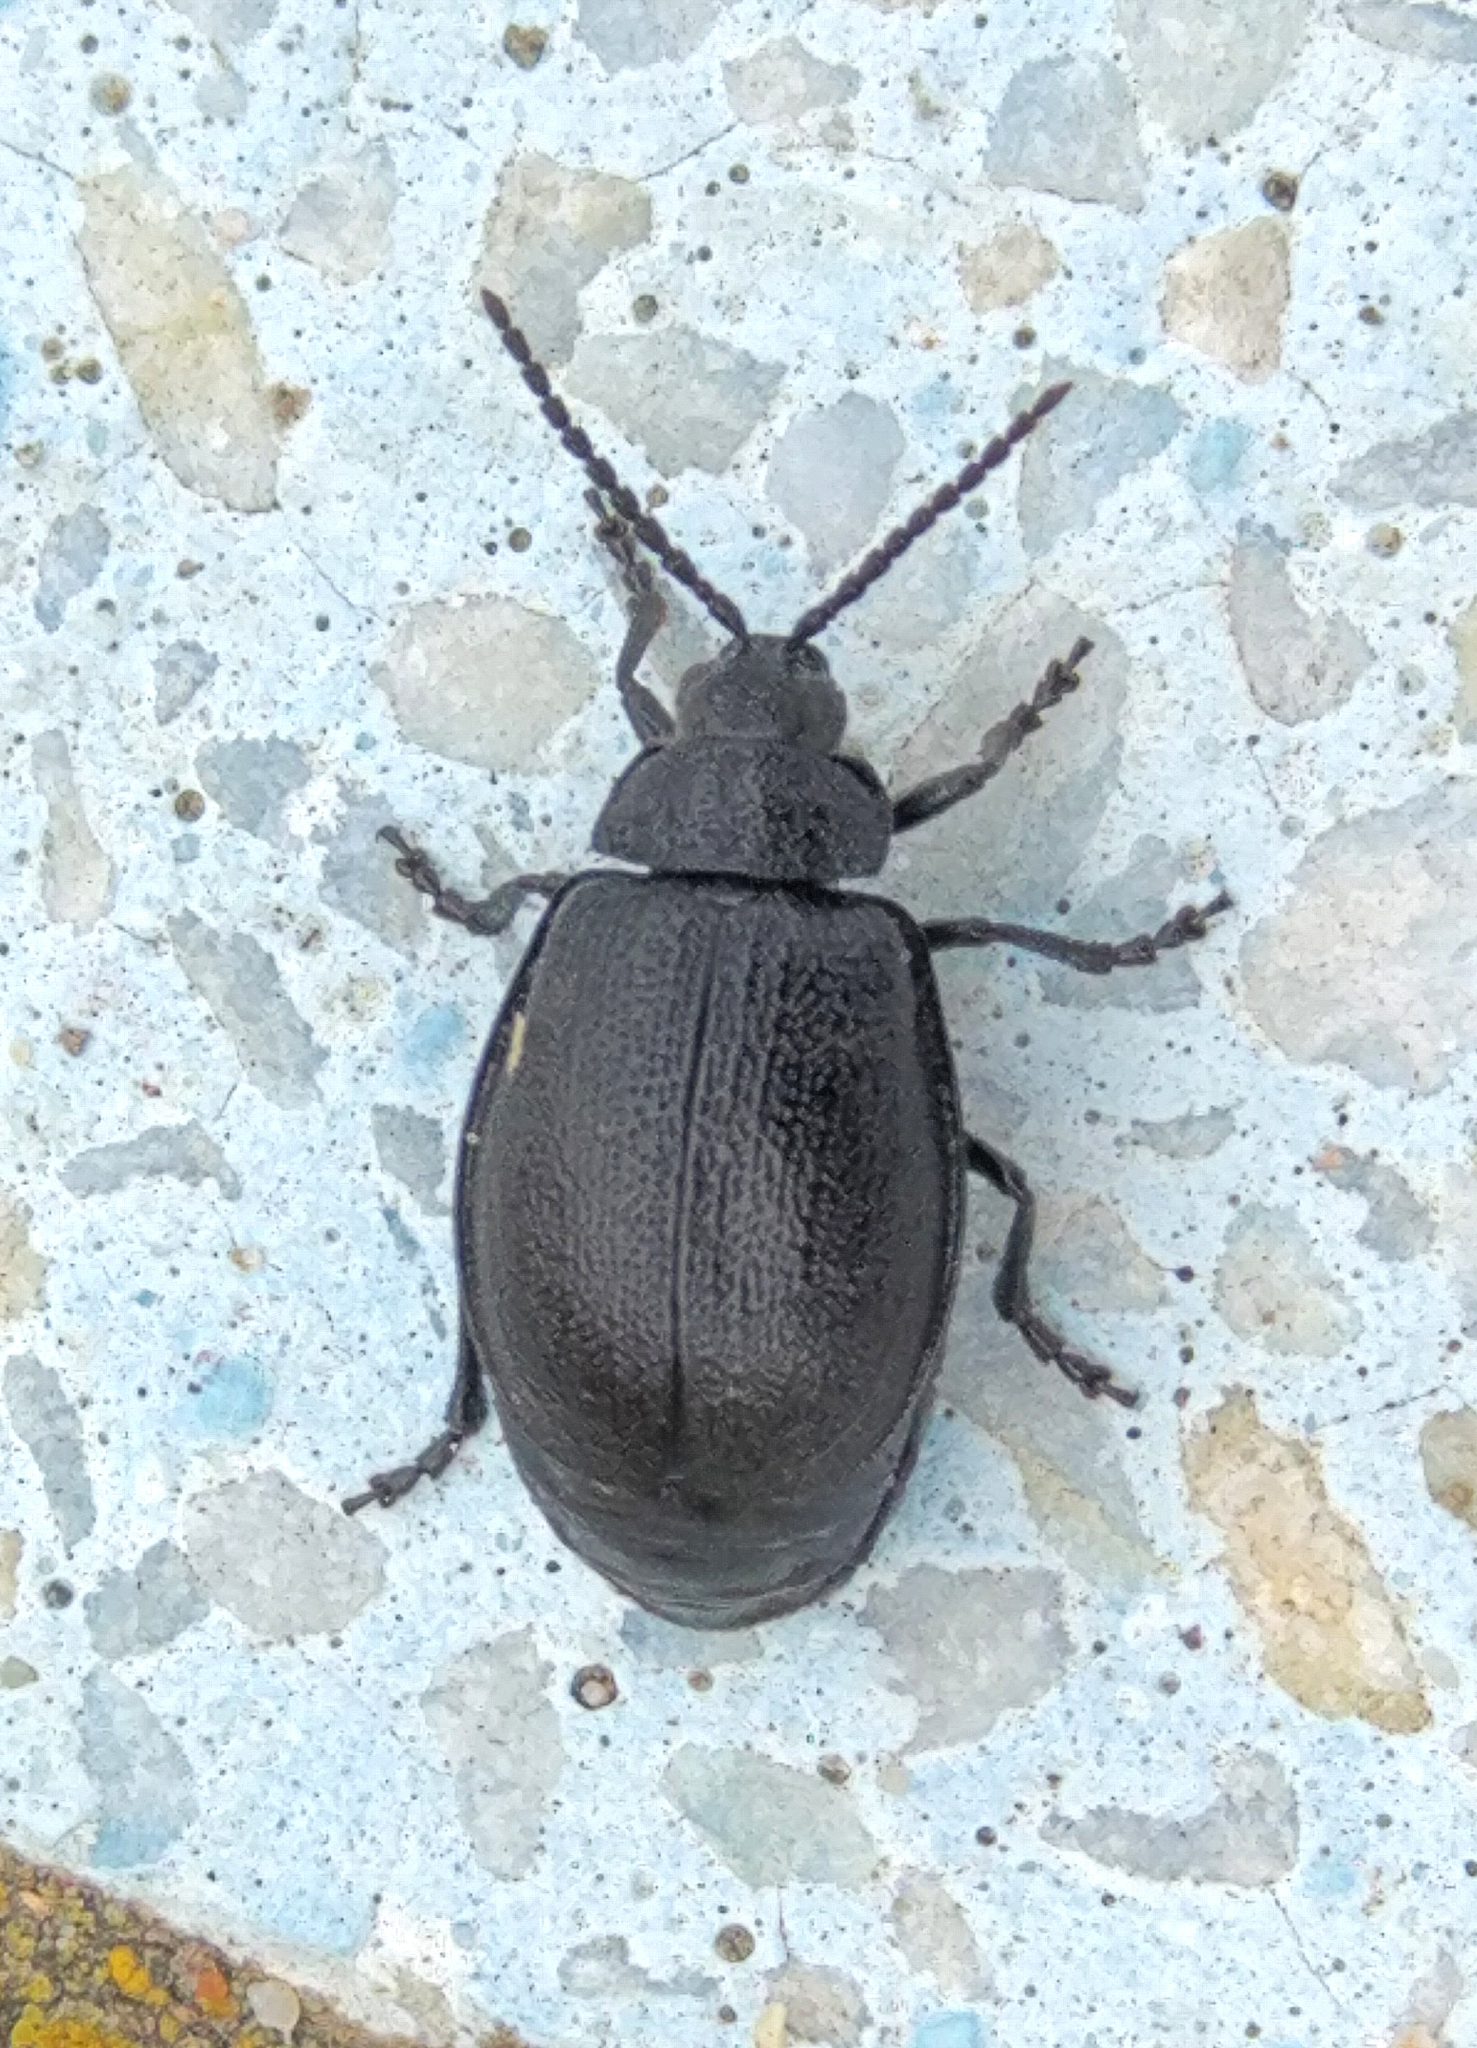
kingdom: Animalia
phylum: Arthropoda
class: Insecta
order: Coleoptera
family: Chrysomelidae
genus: Galeruca
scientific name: Galeruca tanaceti
